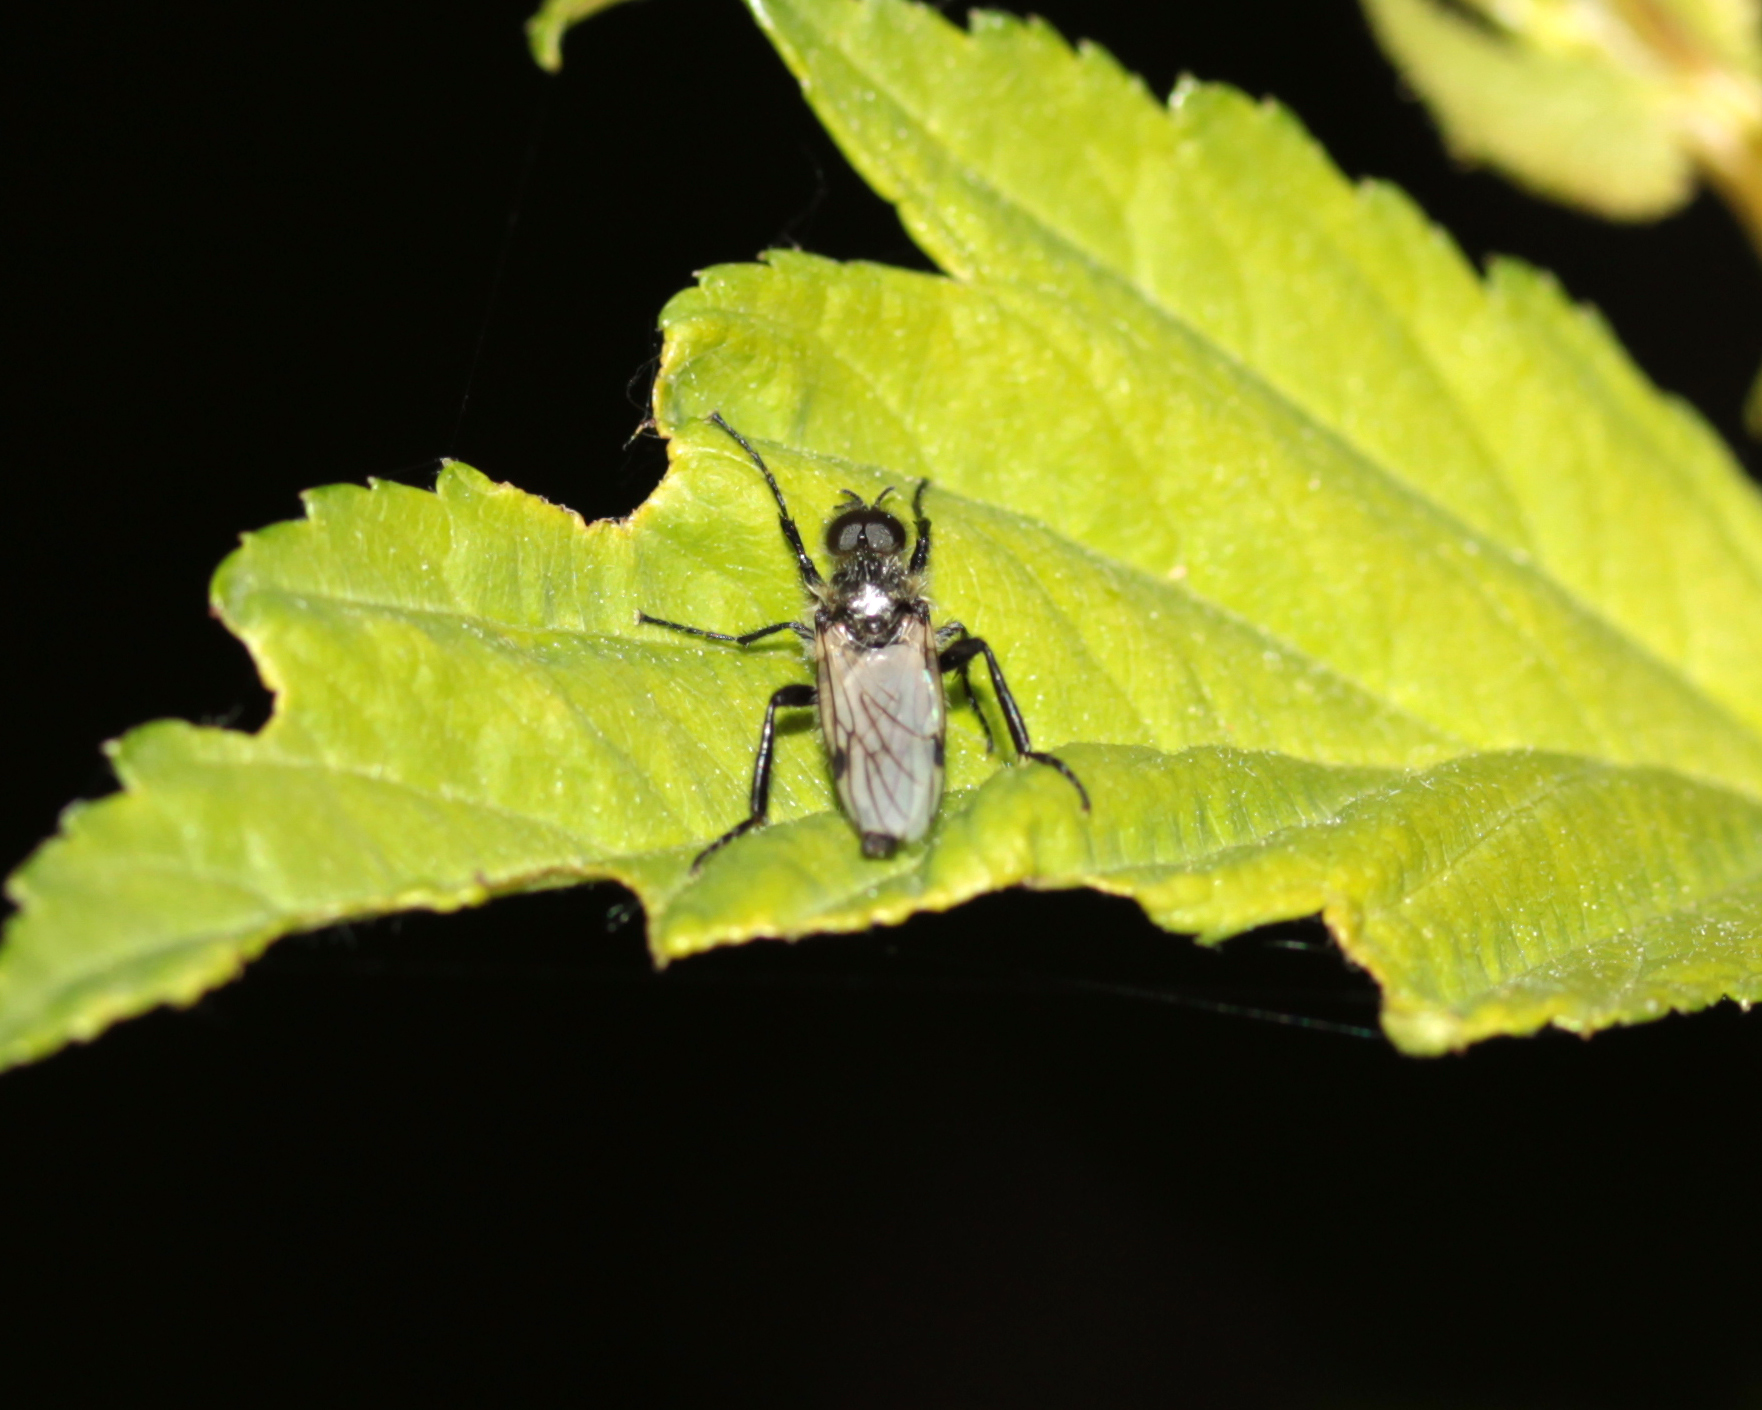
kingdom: Animalia
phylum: Arthropoda
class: Insecta
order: Diptera
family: Bibionidae
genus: Bibio
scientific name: Bibio albipennis
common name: White-winged march fly
